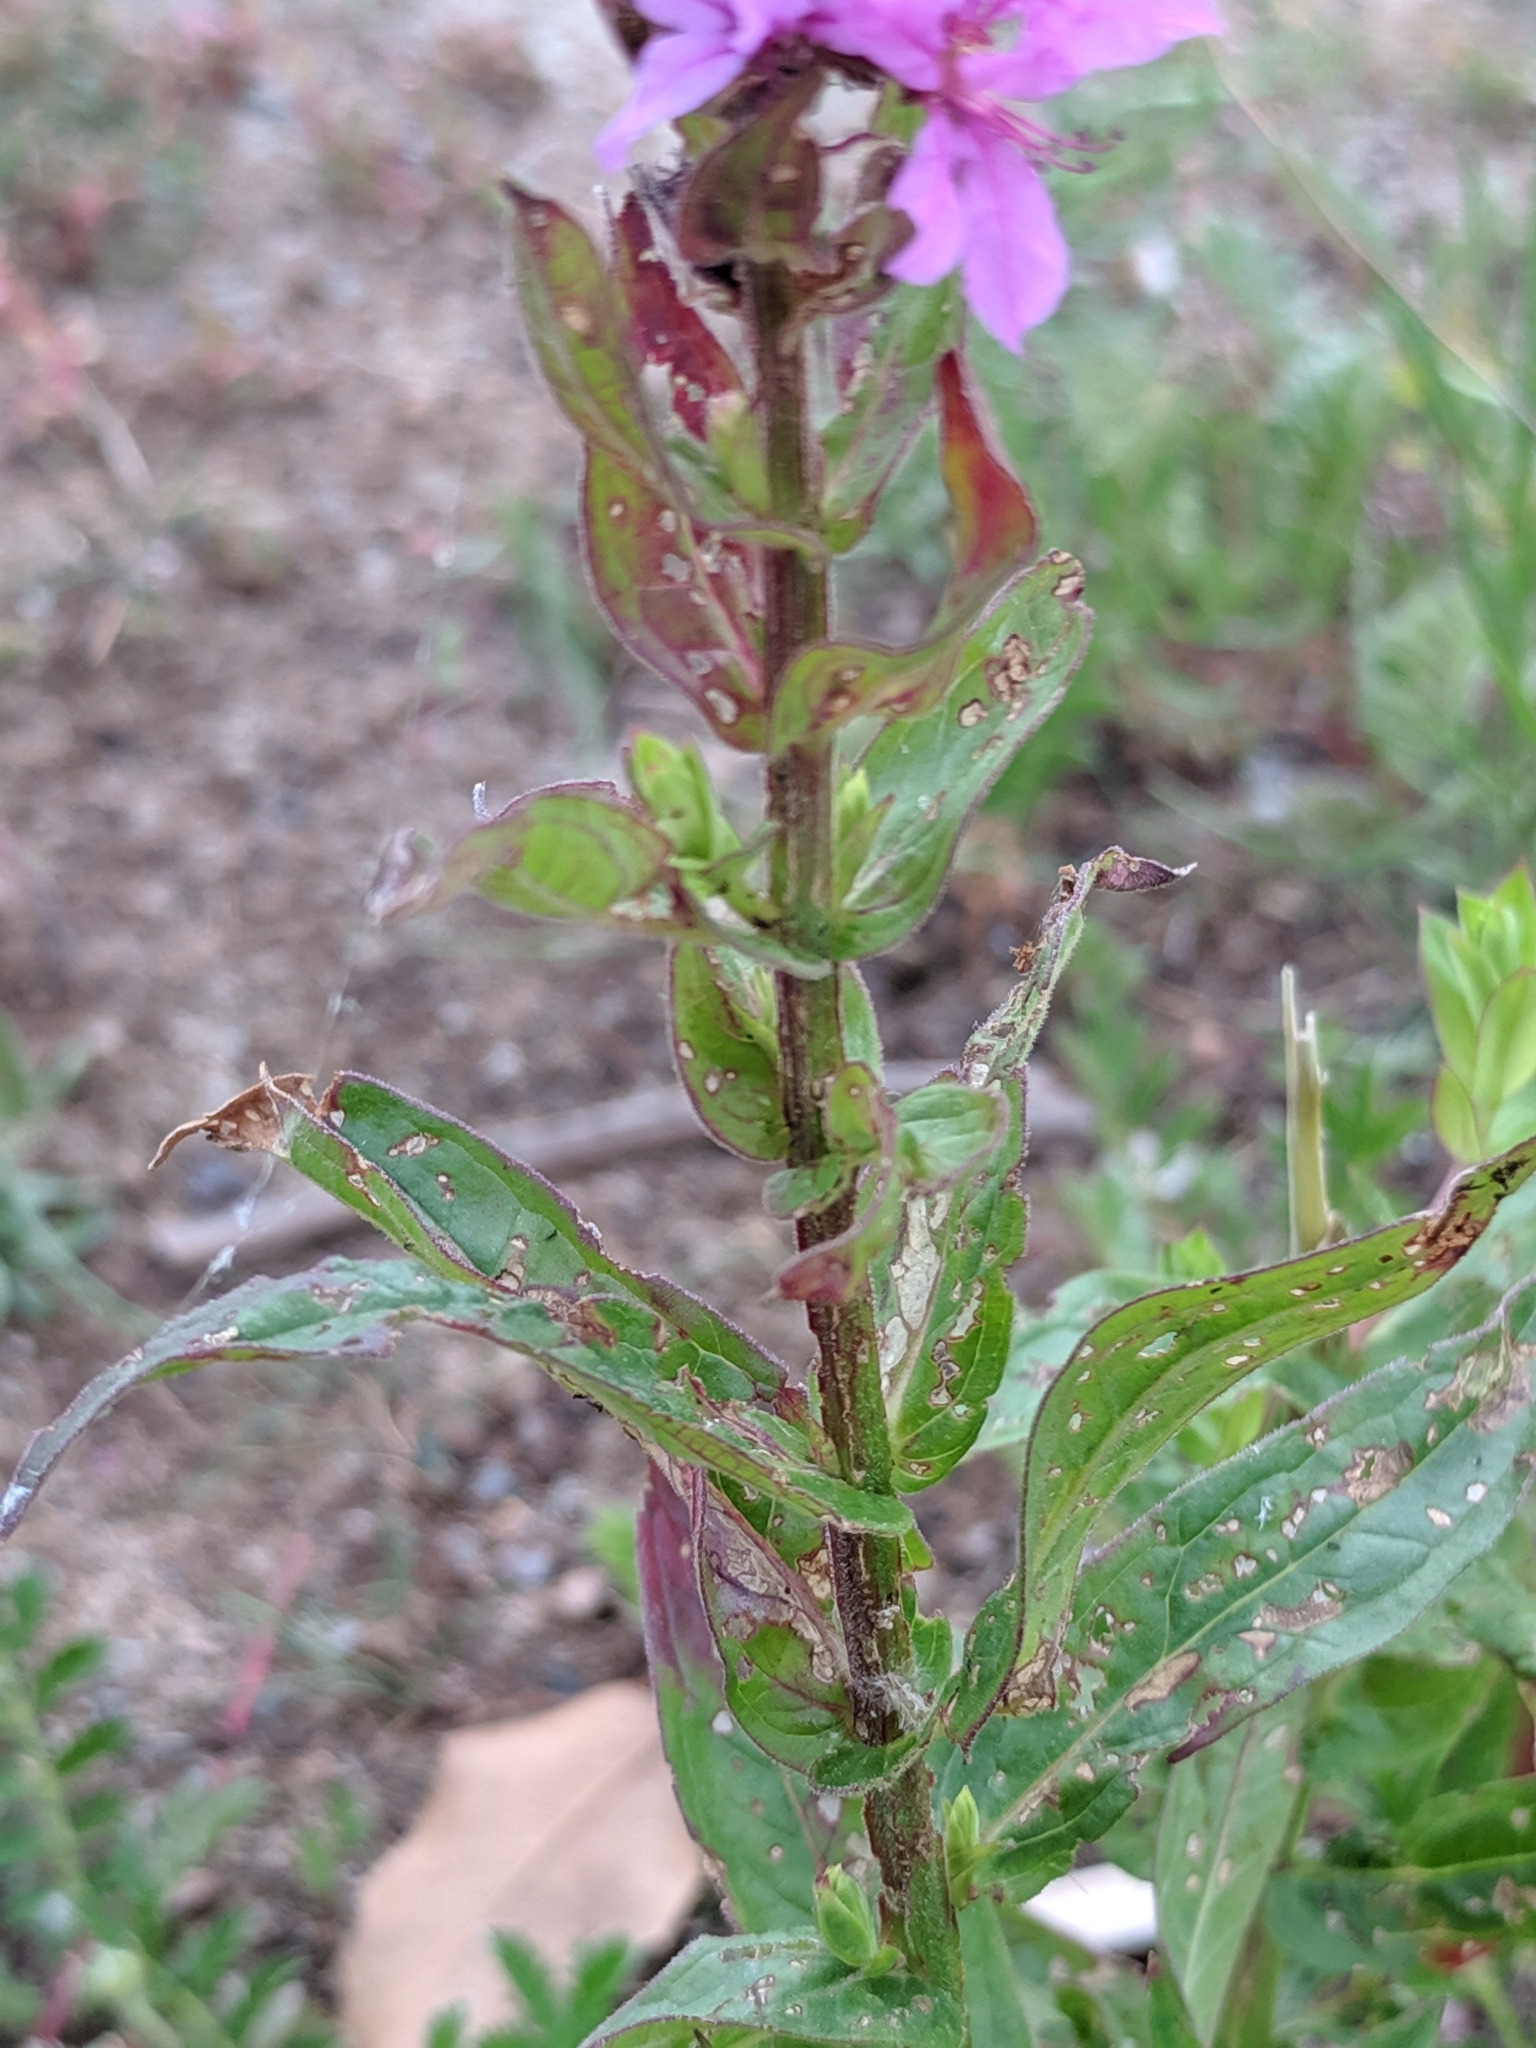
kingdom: Plantae
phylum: Tracheophyta
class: Magnoliopsida
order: Myrtales
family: Lythraceae
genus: Lythrum
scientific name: Lythrum salicaria
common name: Purple loosestrife
